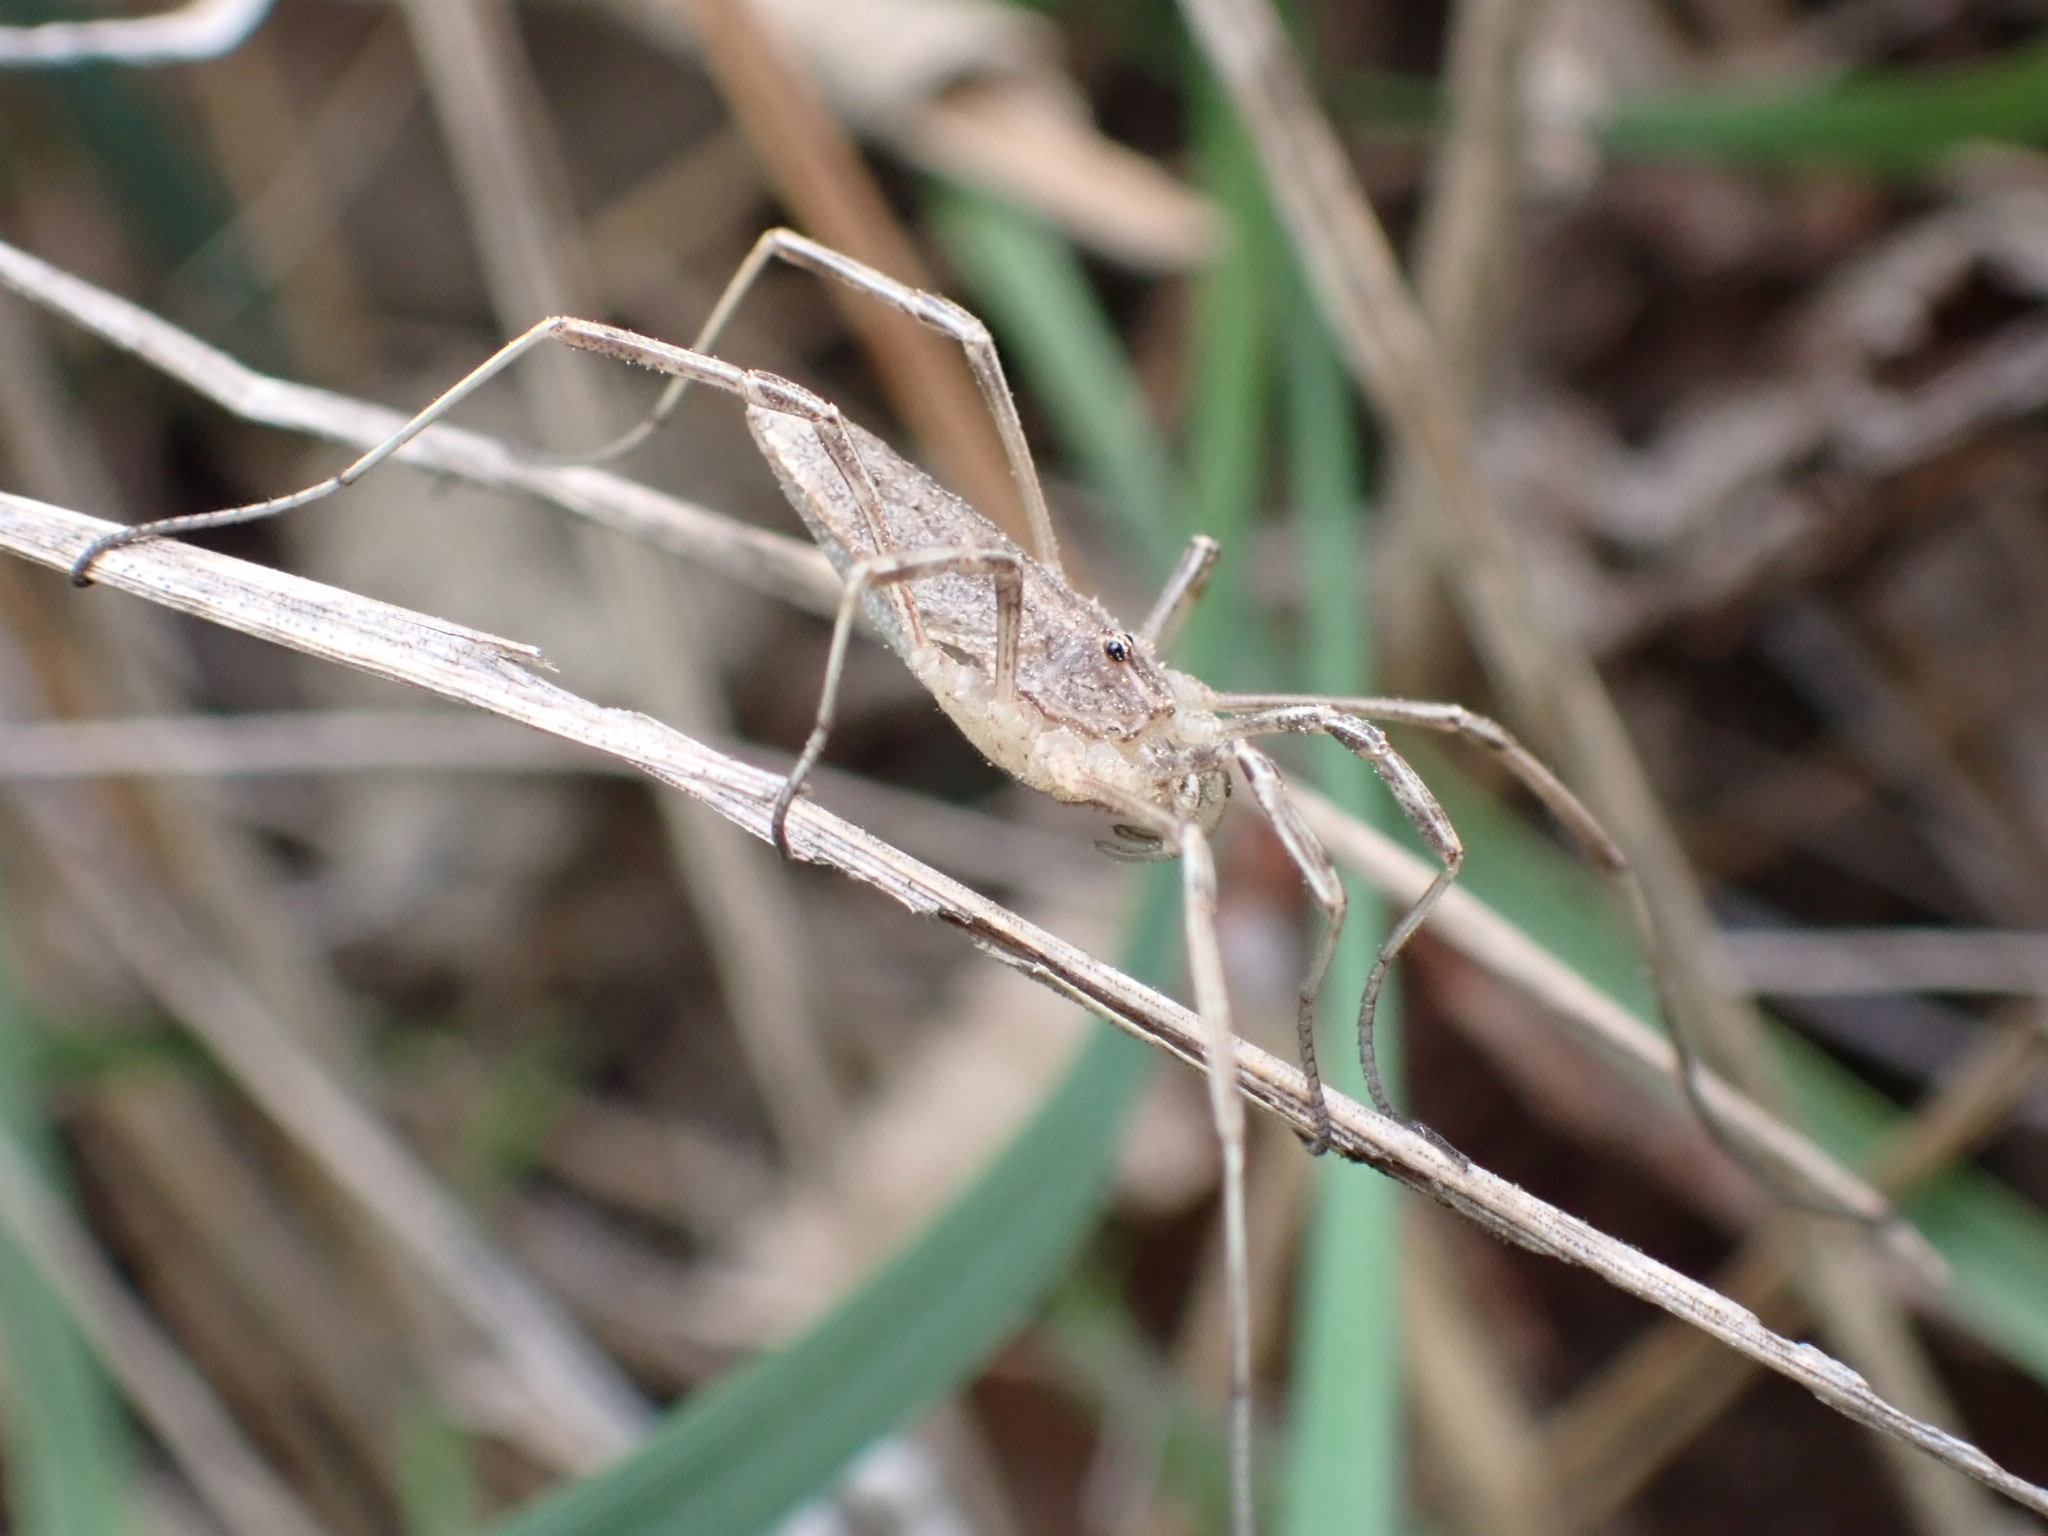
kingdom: Animalia
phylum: Arthropoda
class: Arachnida
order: Opiliones
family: Phalangiidae
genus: Odiellus
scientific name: Odiellus troguloides
